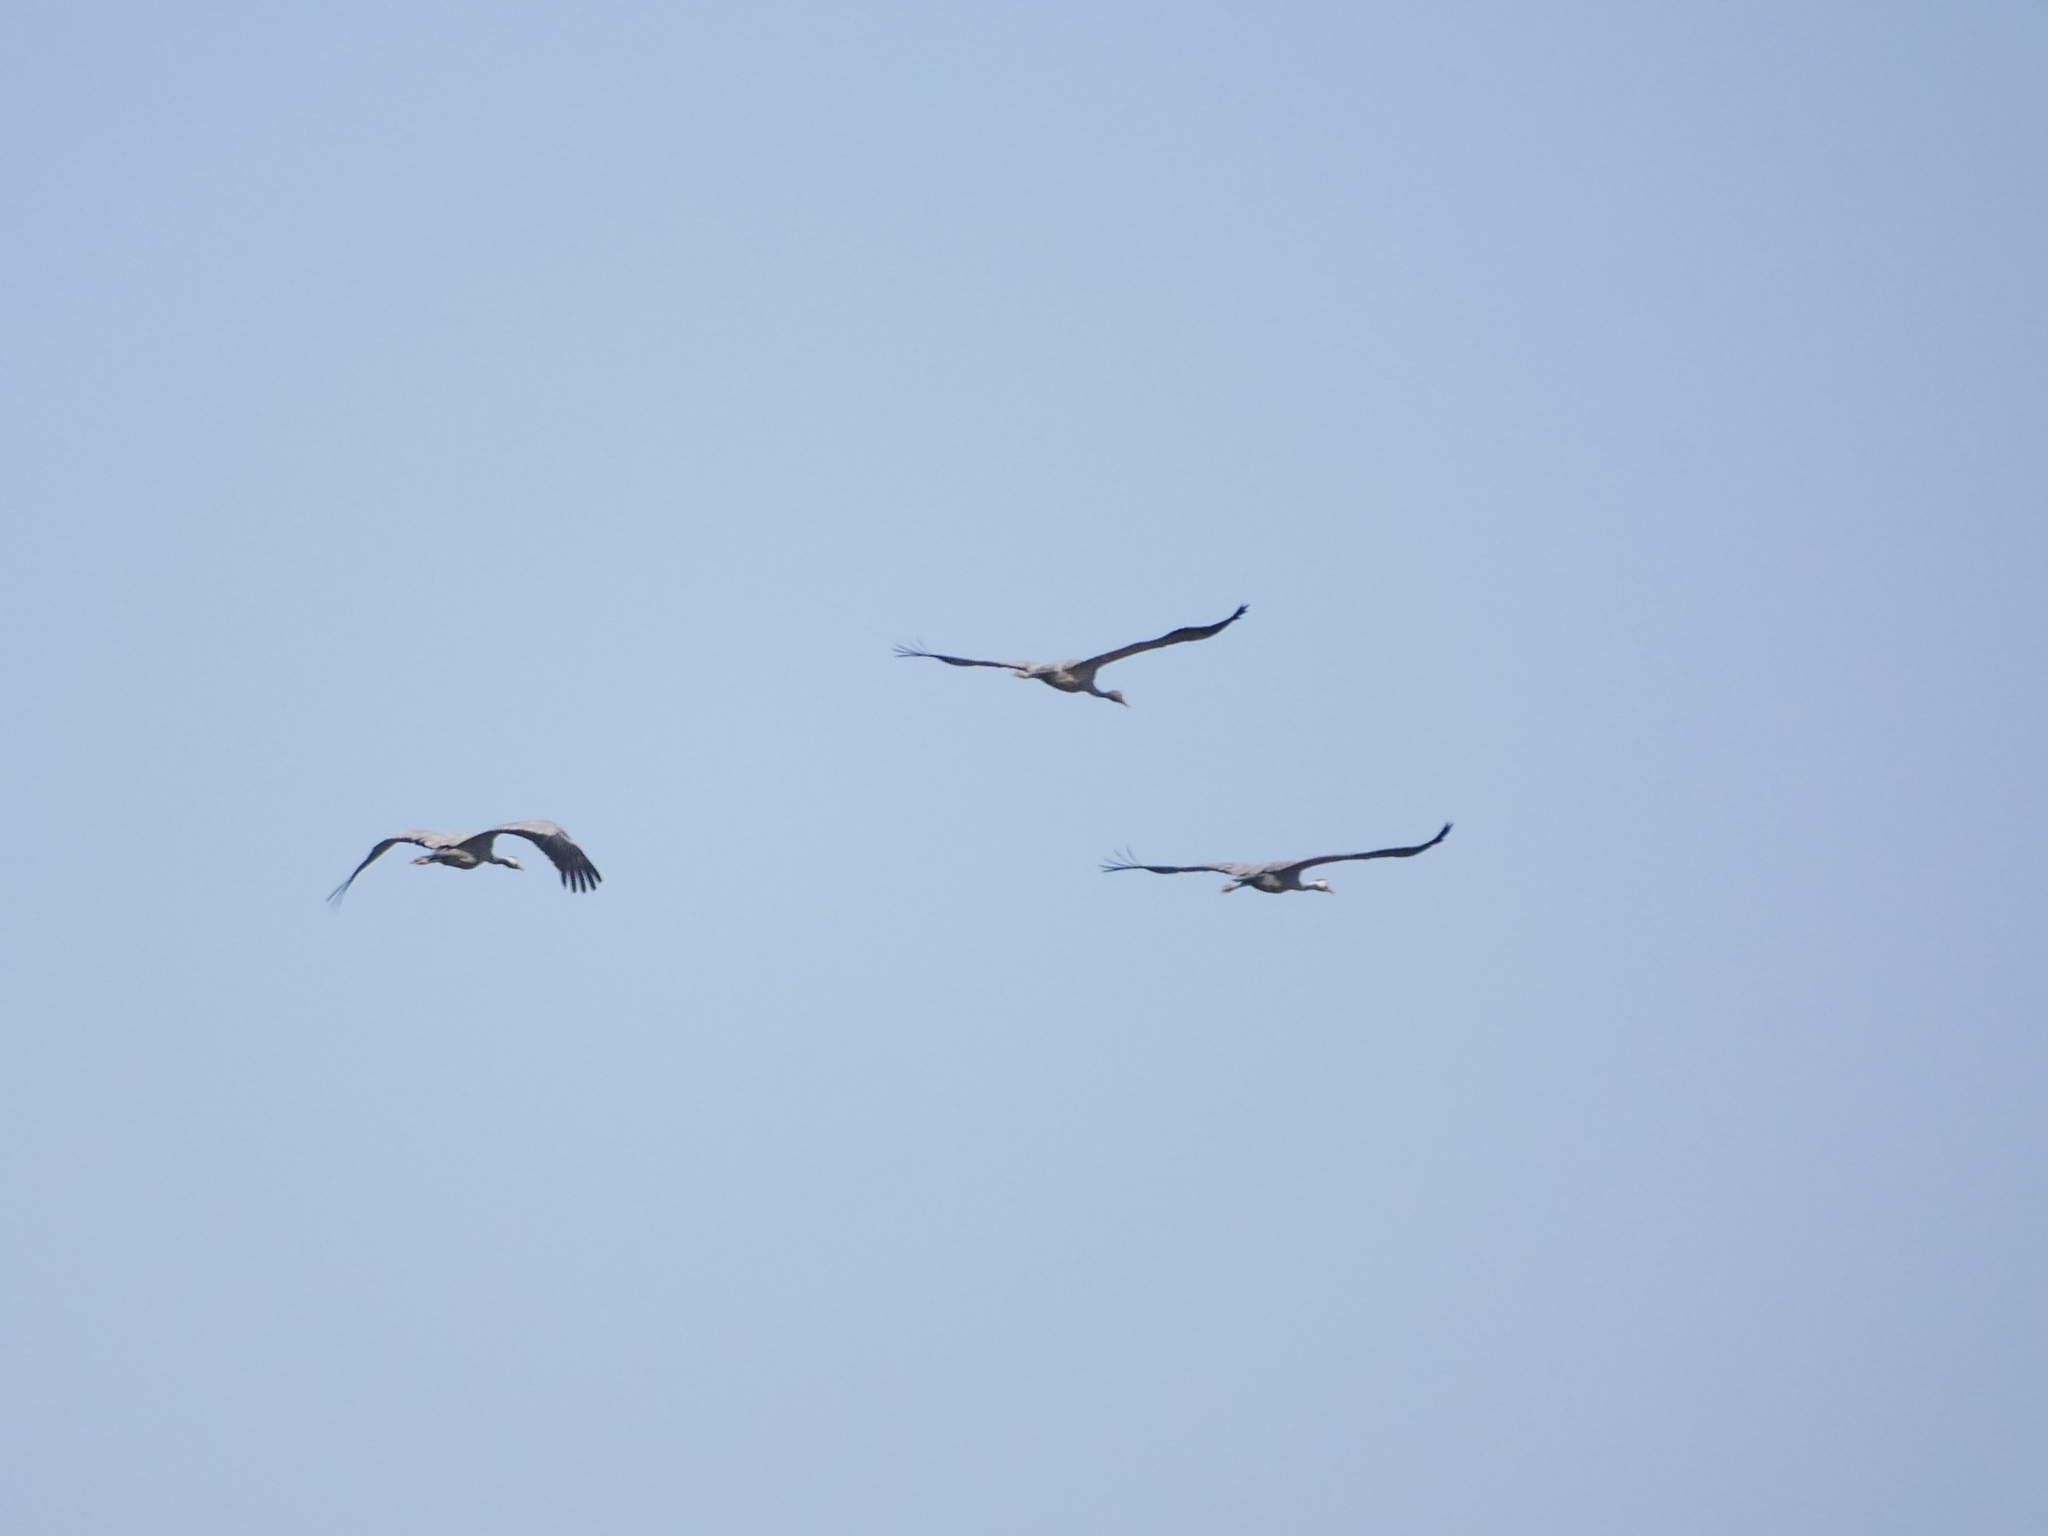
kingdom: Animalia
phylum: Chordata
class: Aves
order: Gruiformes
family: Gruidae
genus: Grus
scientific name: Grus grus
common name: Common crane
